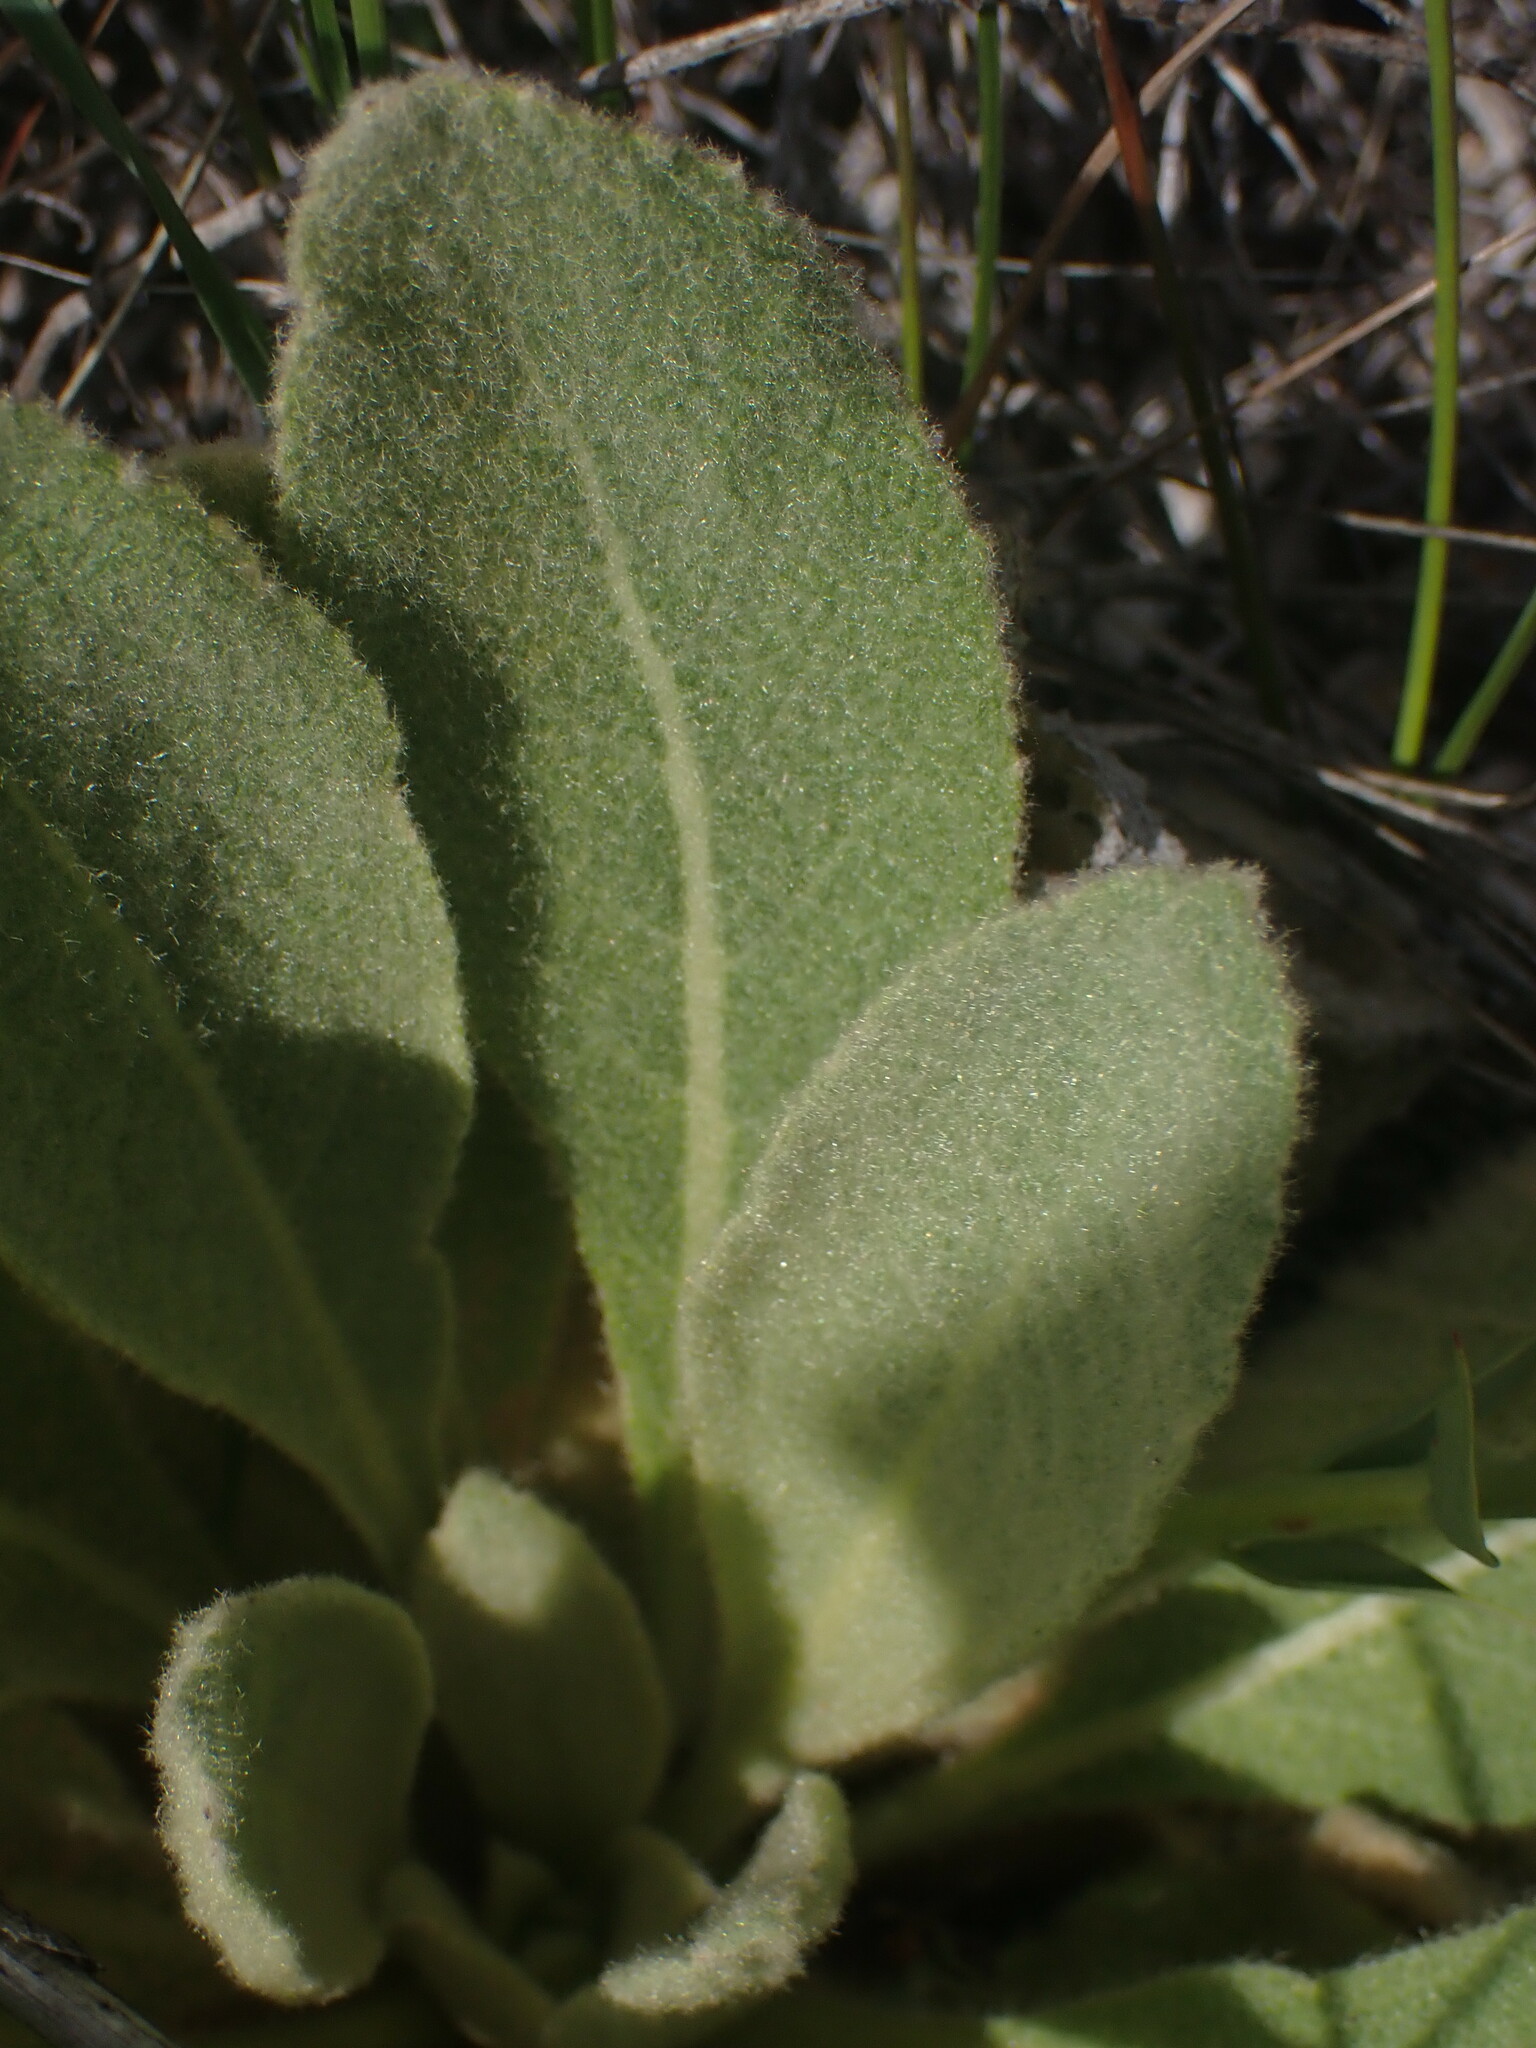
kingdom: Plantae
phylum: Tracheophyta
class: Magnoliopsida
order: Lamiales
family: Scrophulariaceae
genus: Verbascum
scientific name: Verbascum thapsus
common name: Common mullein
